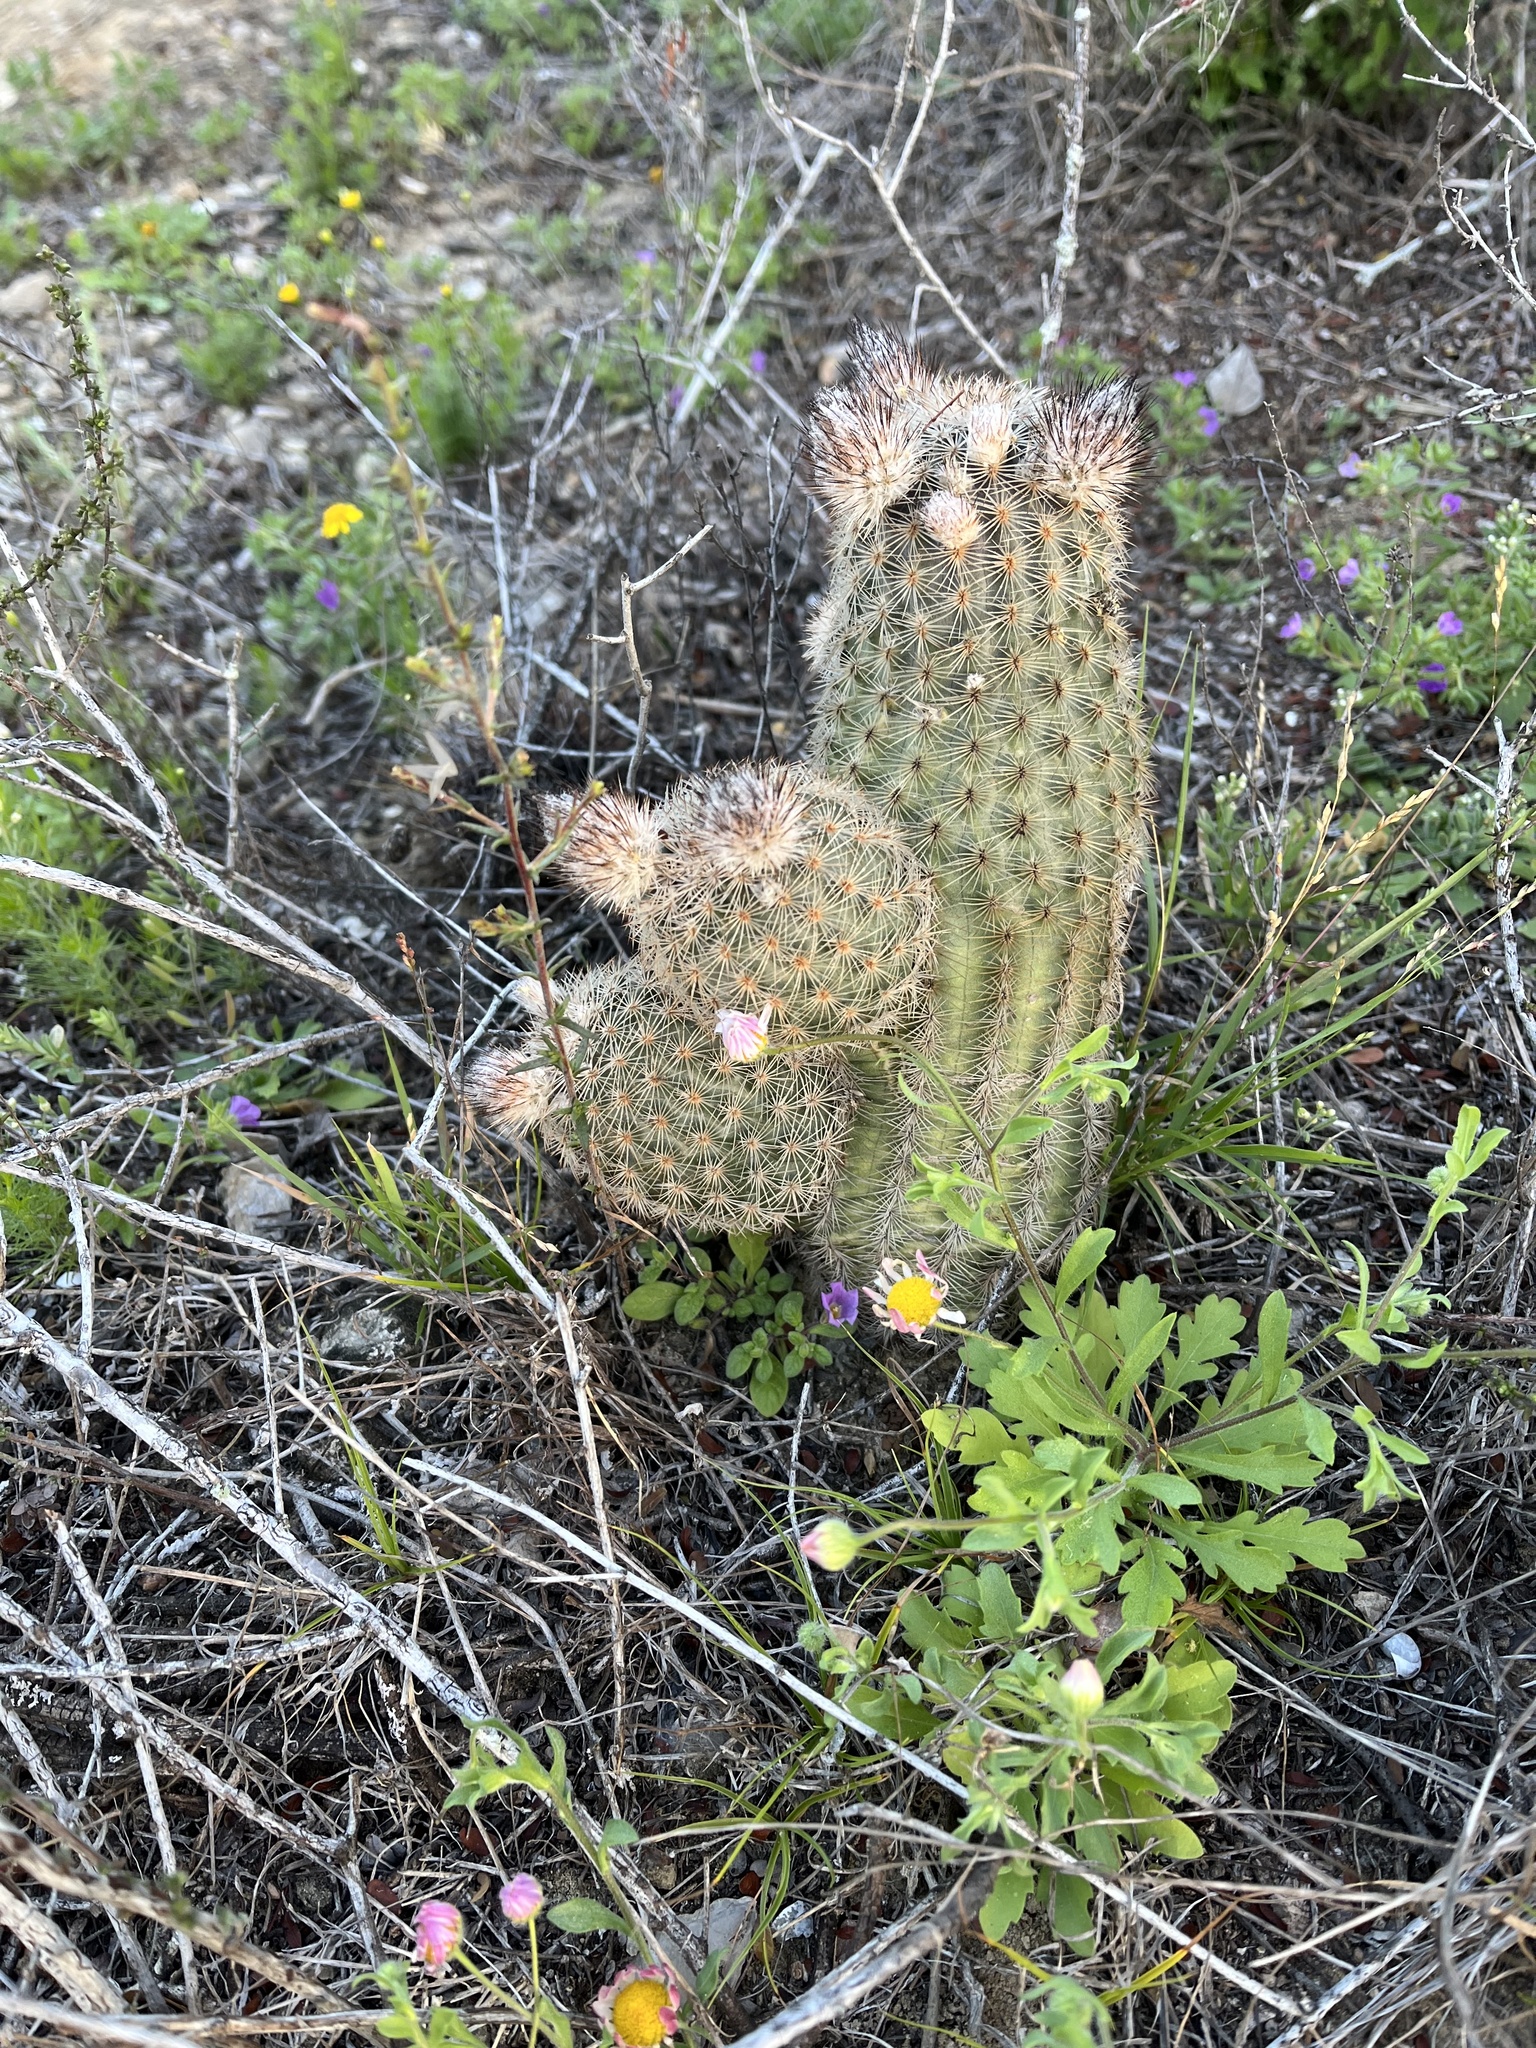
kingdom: Plantae
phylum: Tracheophyta
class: Magnoliopsida
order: Caryophyllales
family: Cactaceae
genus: Echinocereus
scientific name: Echinocereus reichenbachii
